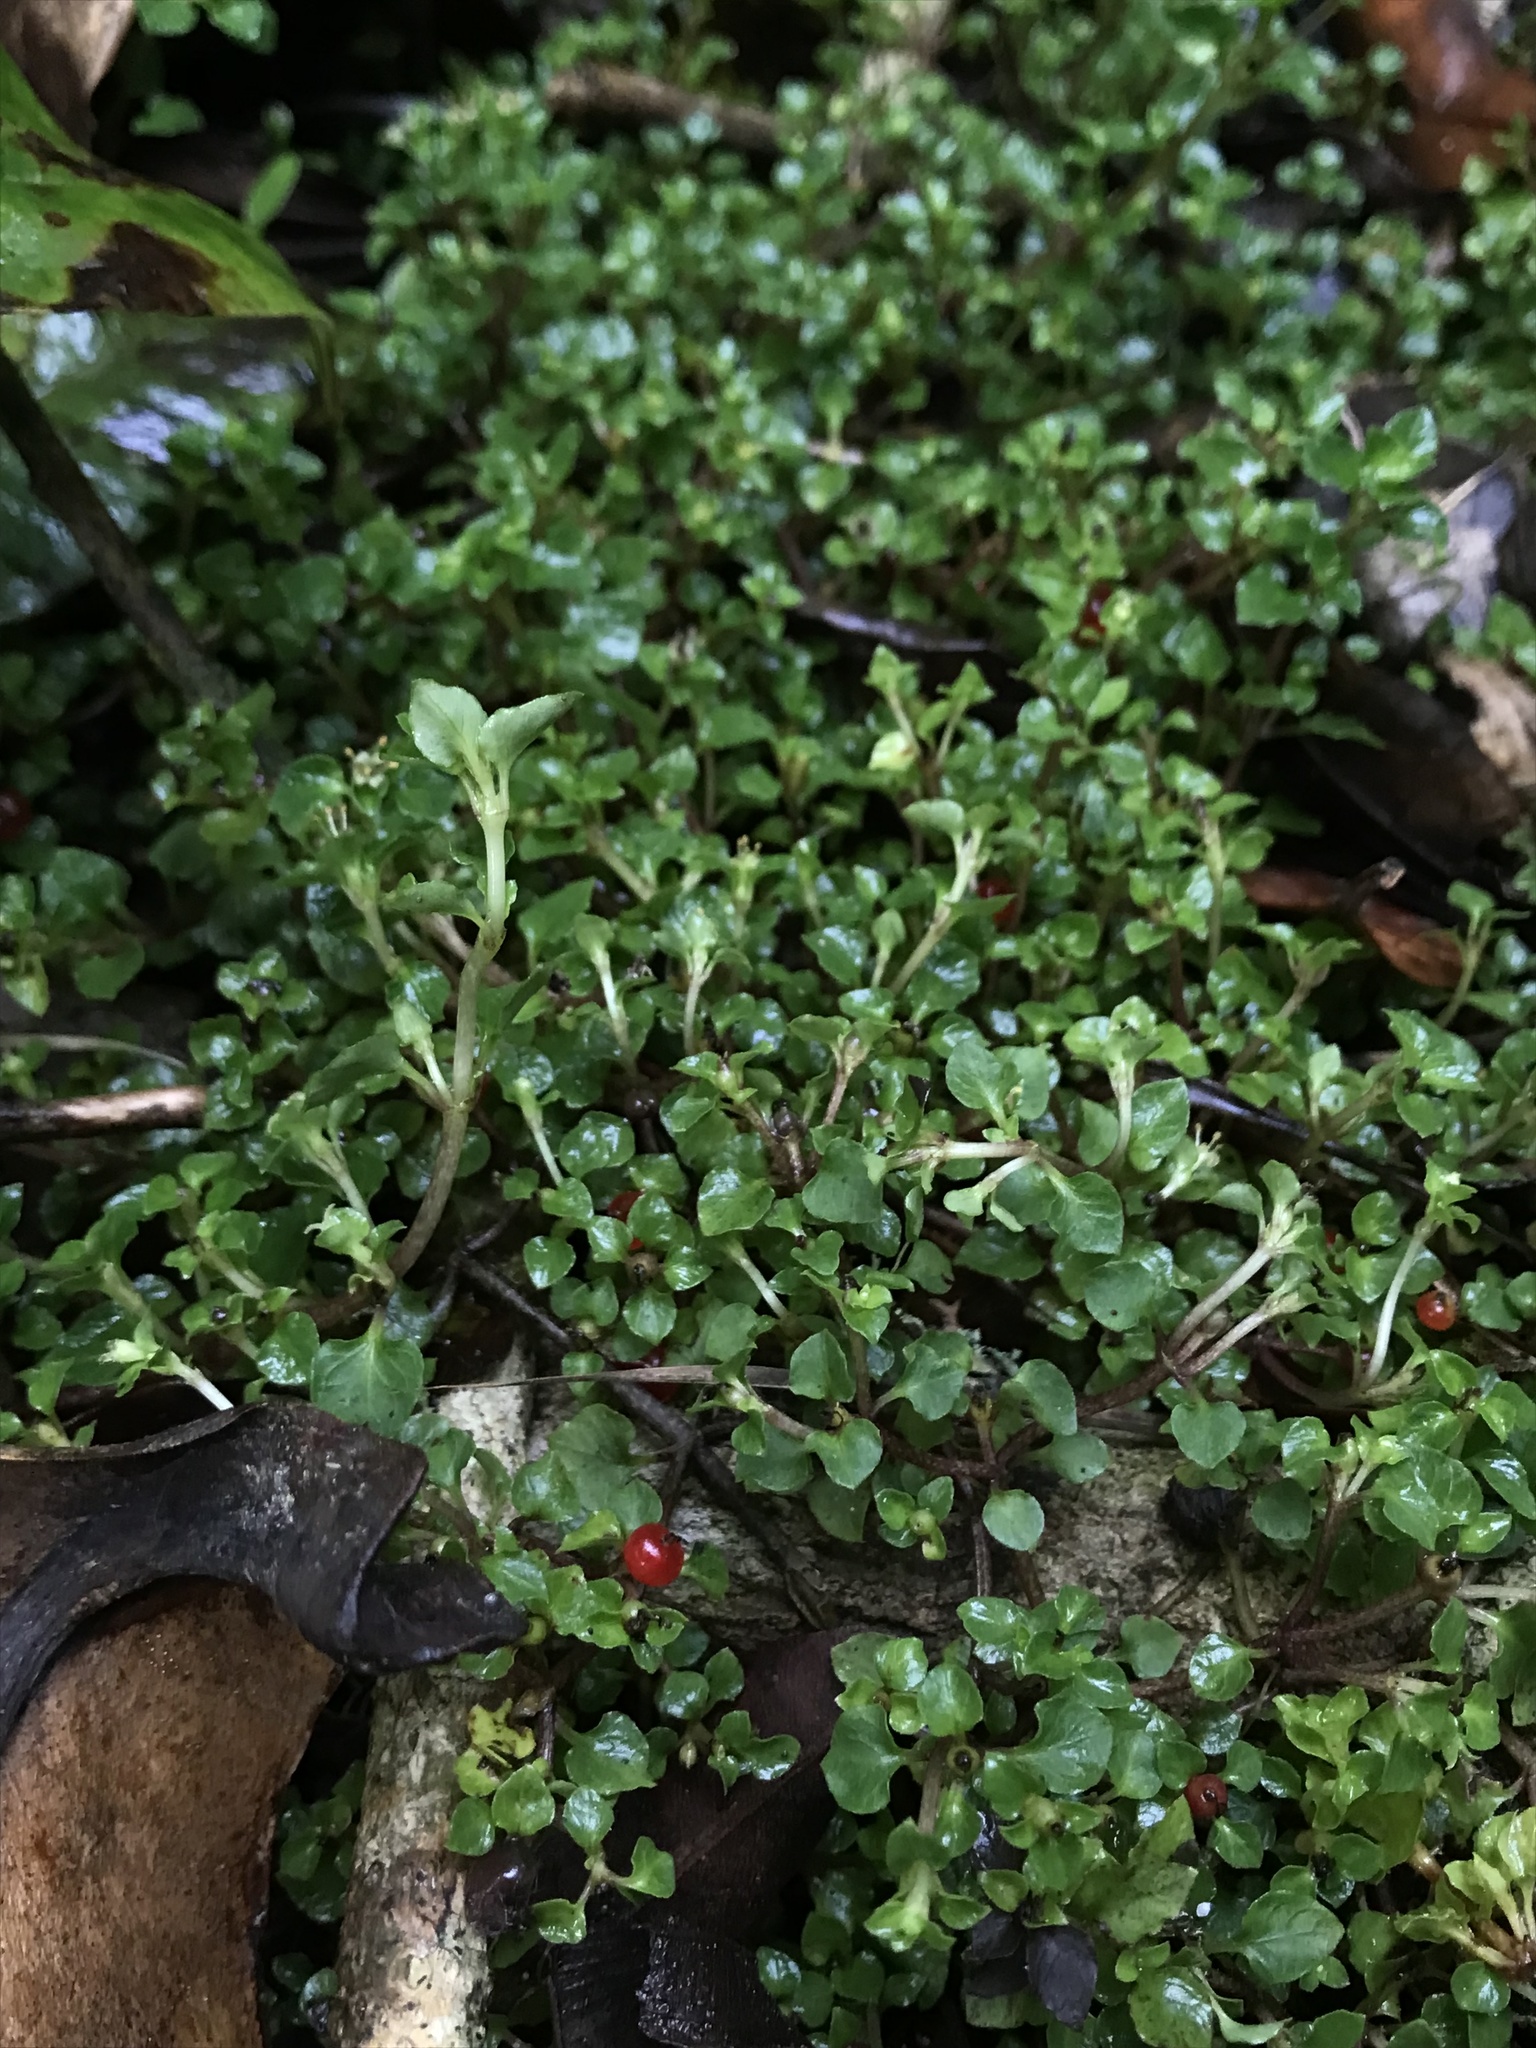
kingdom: Plantae
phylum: Tracheophyta
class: Magnoliopsida
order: Gentianales
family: Rubiaceae
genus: Nertera
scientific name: Nertera granadensis
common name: Beadplant
